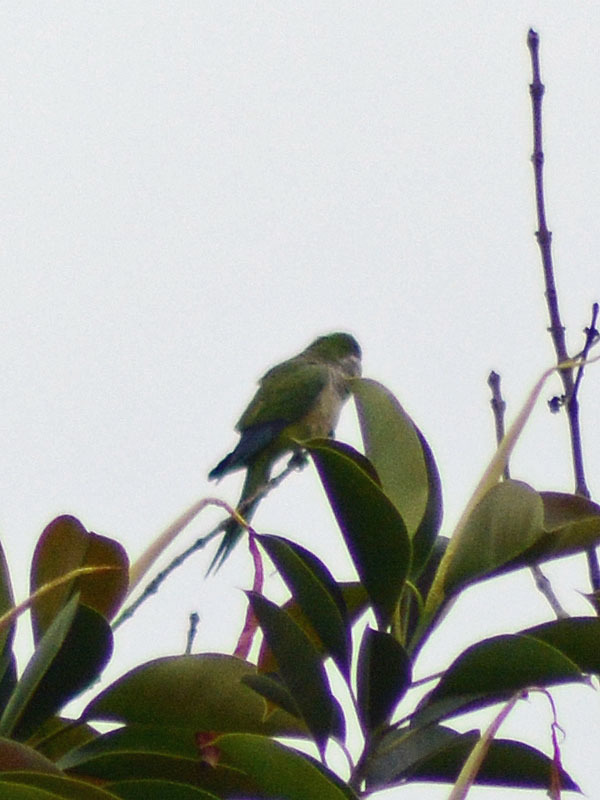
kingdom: Animalia
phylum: Chordata
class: Aves
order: Psittaciformes
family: Psittacidae
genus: Myiopsitta
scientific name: Myiopsitta monachus
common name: Monk parakeet
